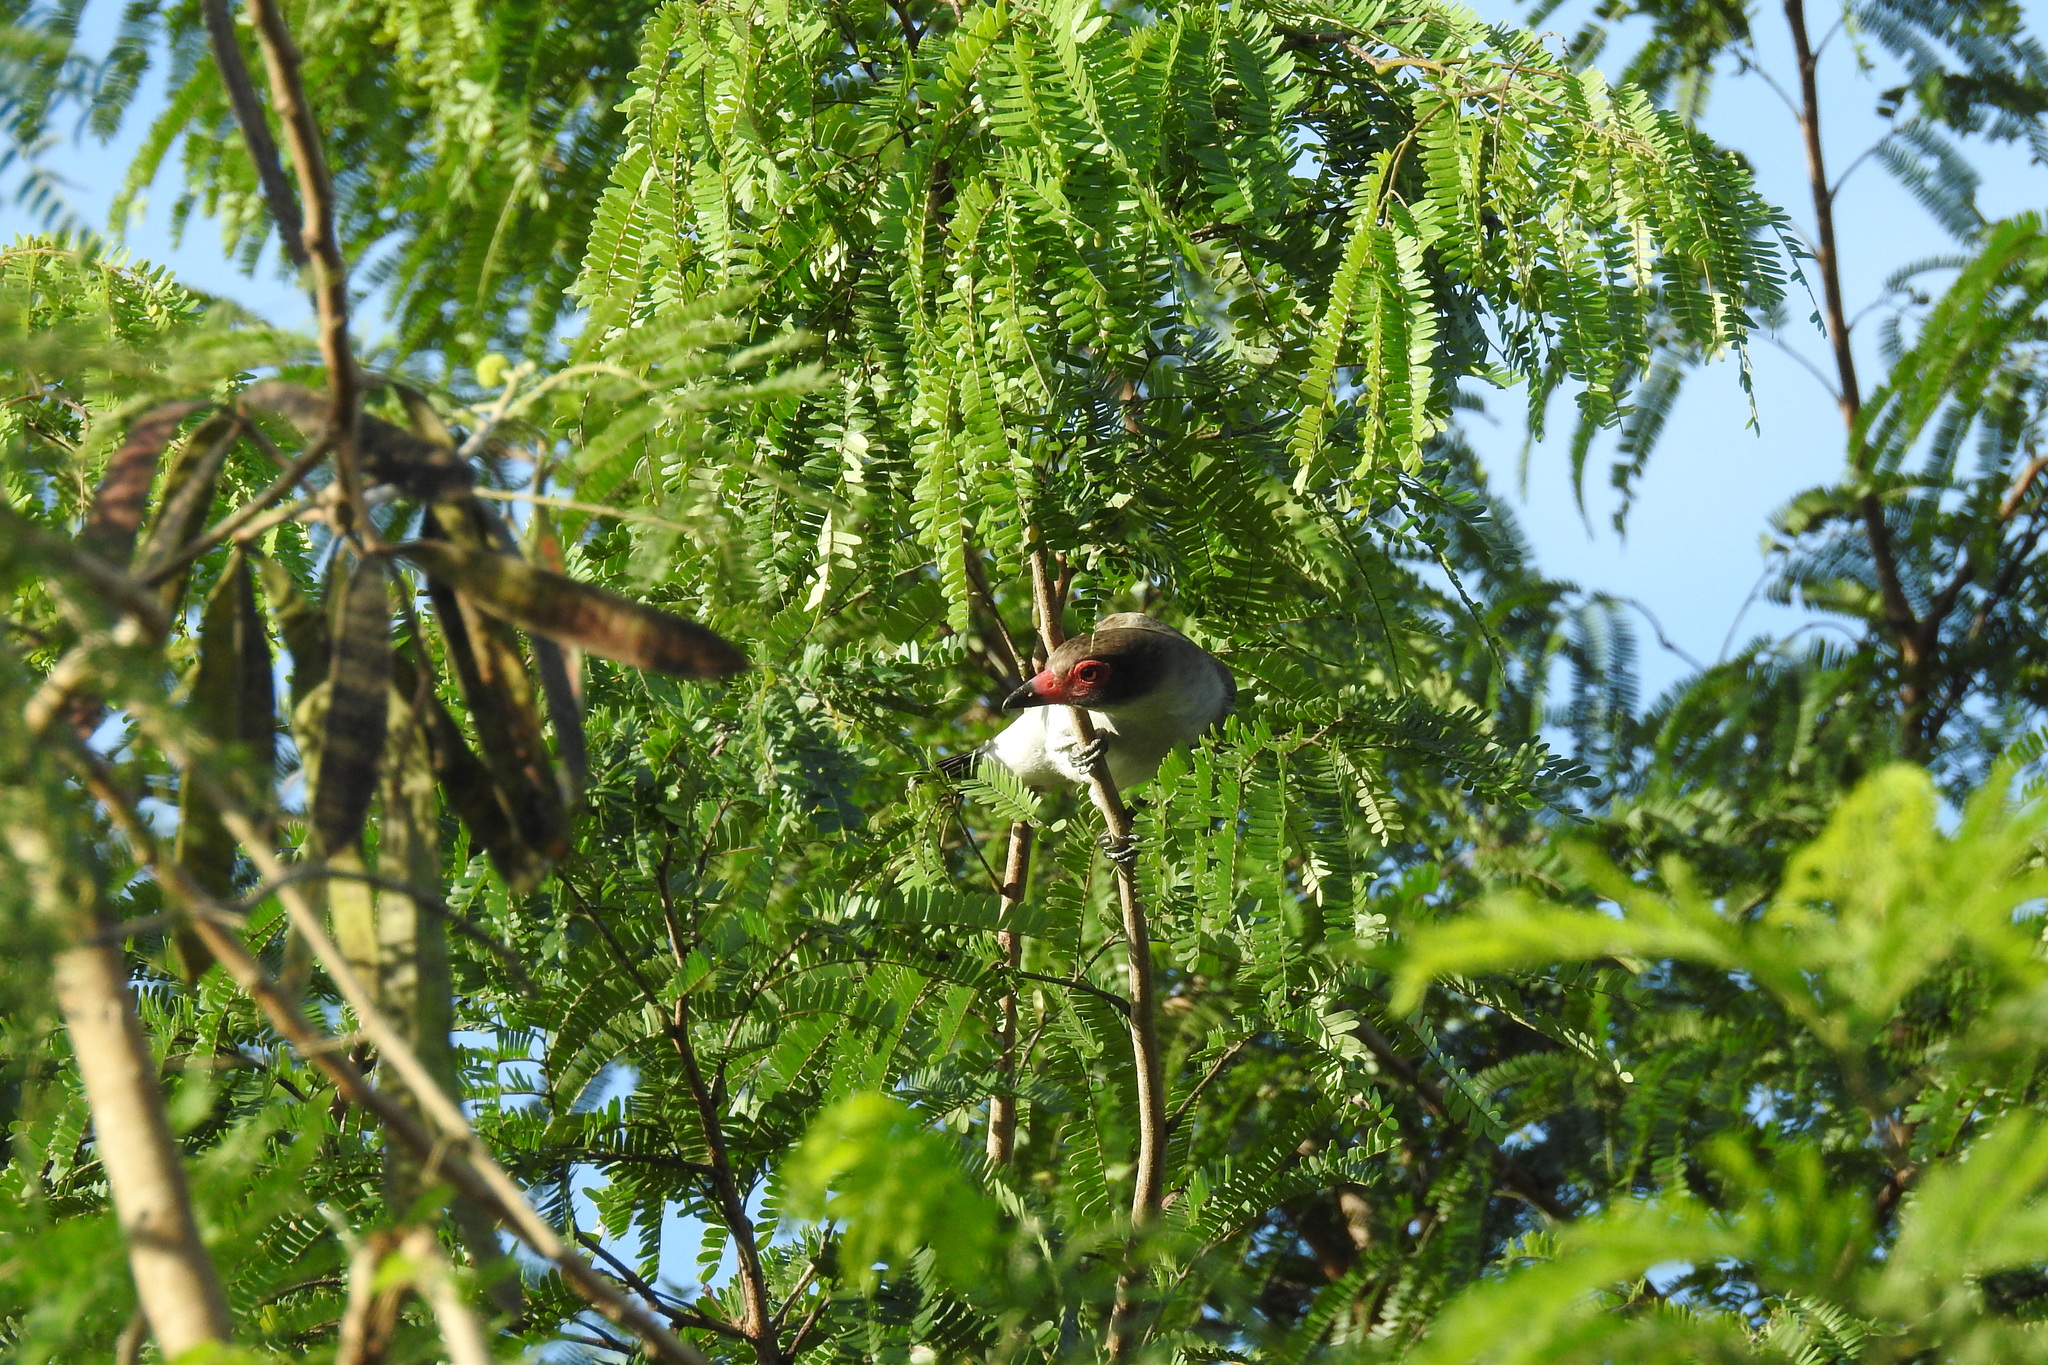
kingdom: Animalia
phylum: Chordata
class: Aves
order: Passeriformes
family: Cotingidae
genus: Tityra
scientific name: Tityra semifasciata
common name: Masked tityra
